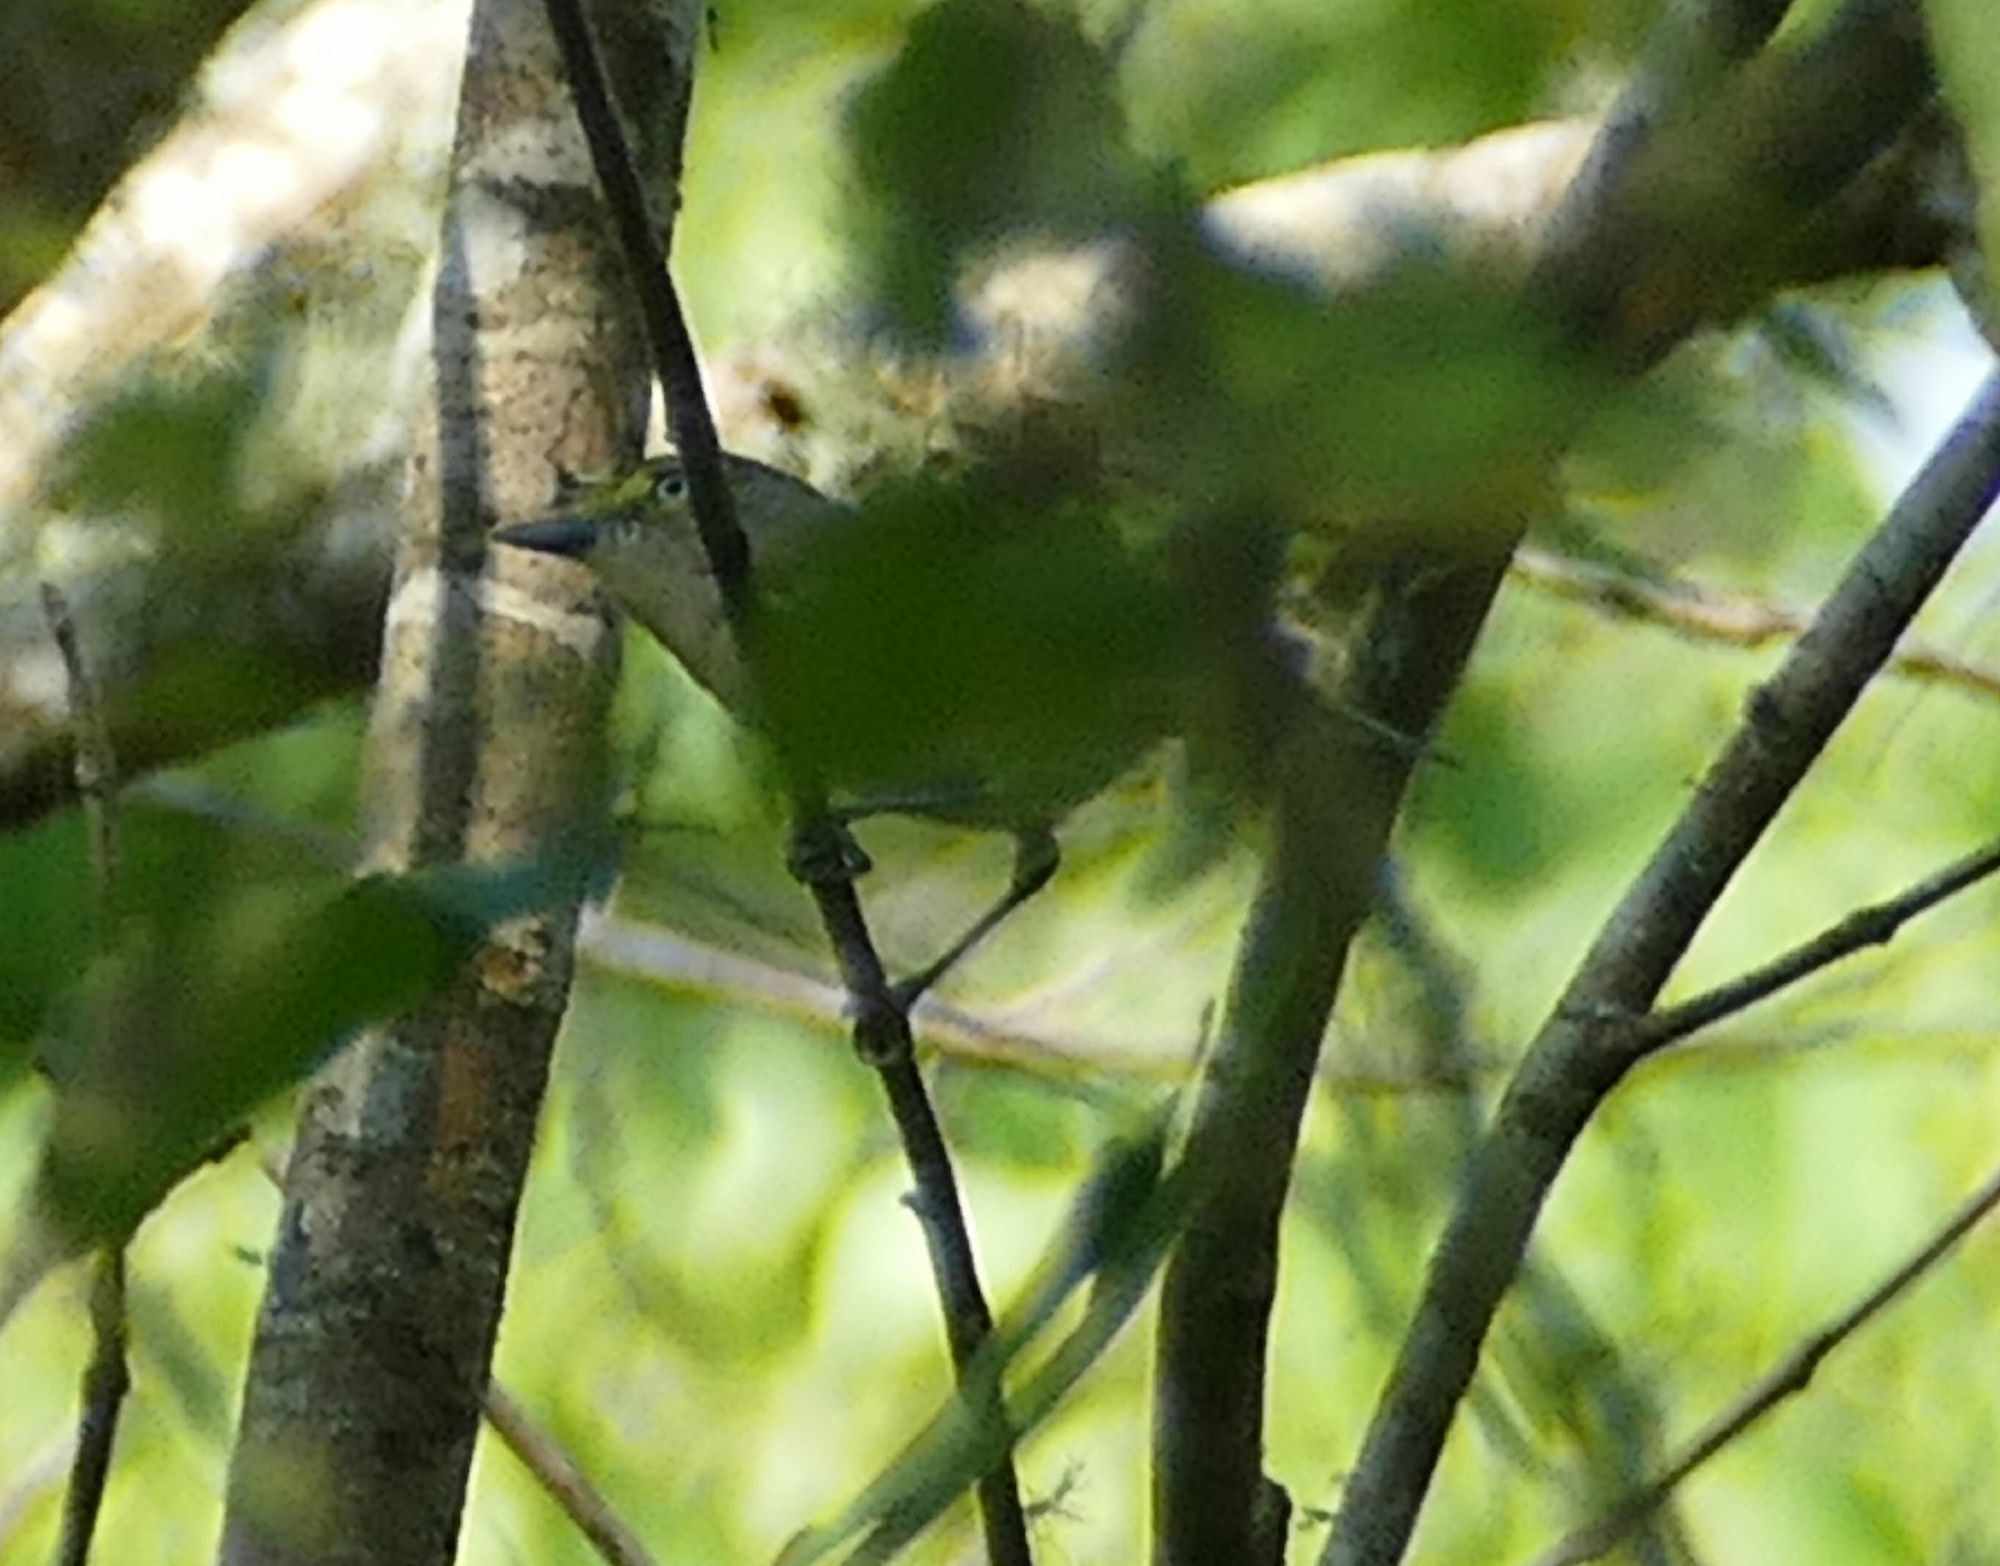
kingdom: Animalia
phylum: Chordata
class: Aves
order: Passeriformes
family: Vireonidae
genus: Vireo
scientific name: Vireo griseus
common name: White-eyed vireo
